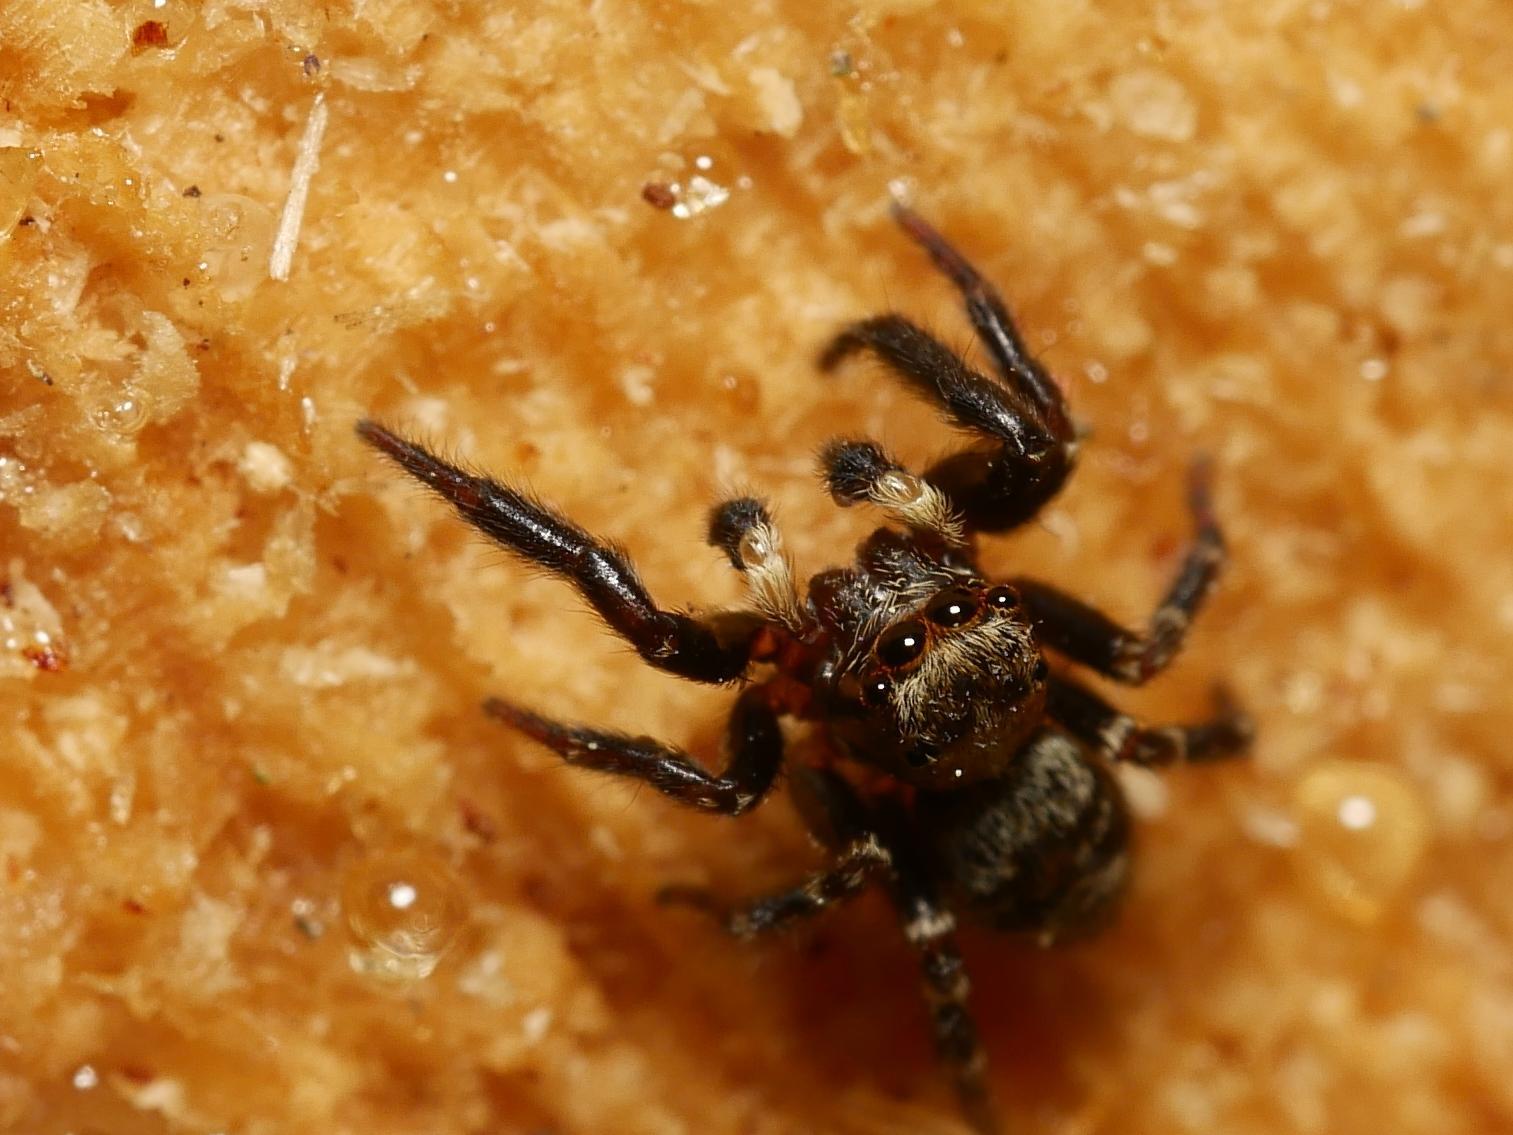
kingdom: Animalia
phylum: Arthropoda
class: Arachnida
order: Araneae
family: Salticidae
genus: Pseudeuophrys
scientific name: Pseudeuophrys erratica
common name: Jumping spider
